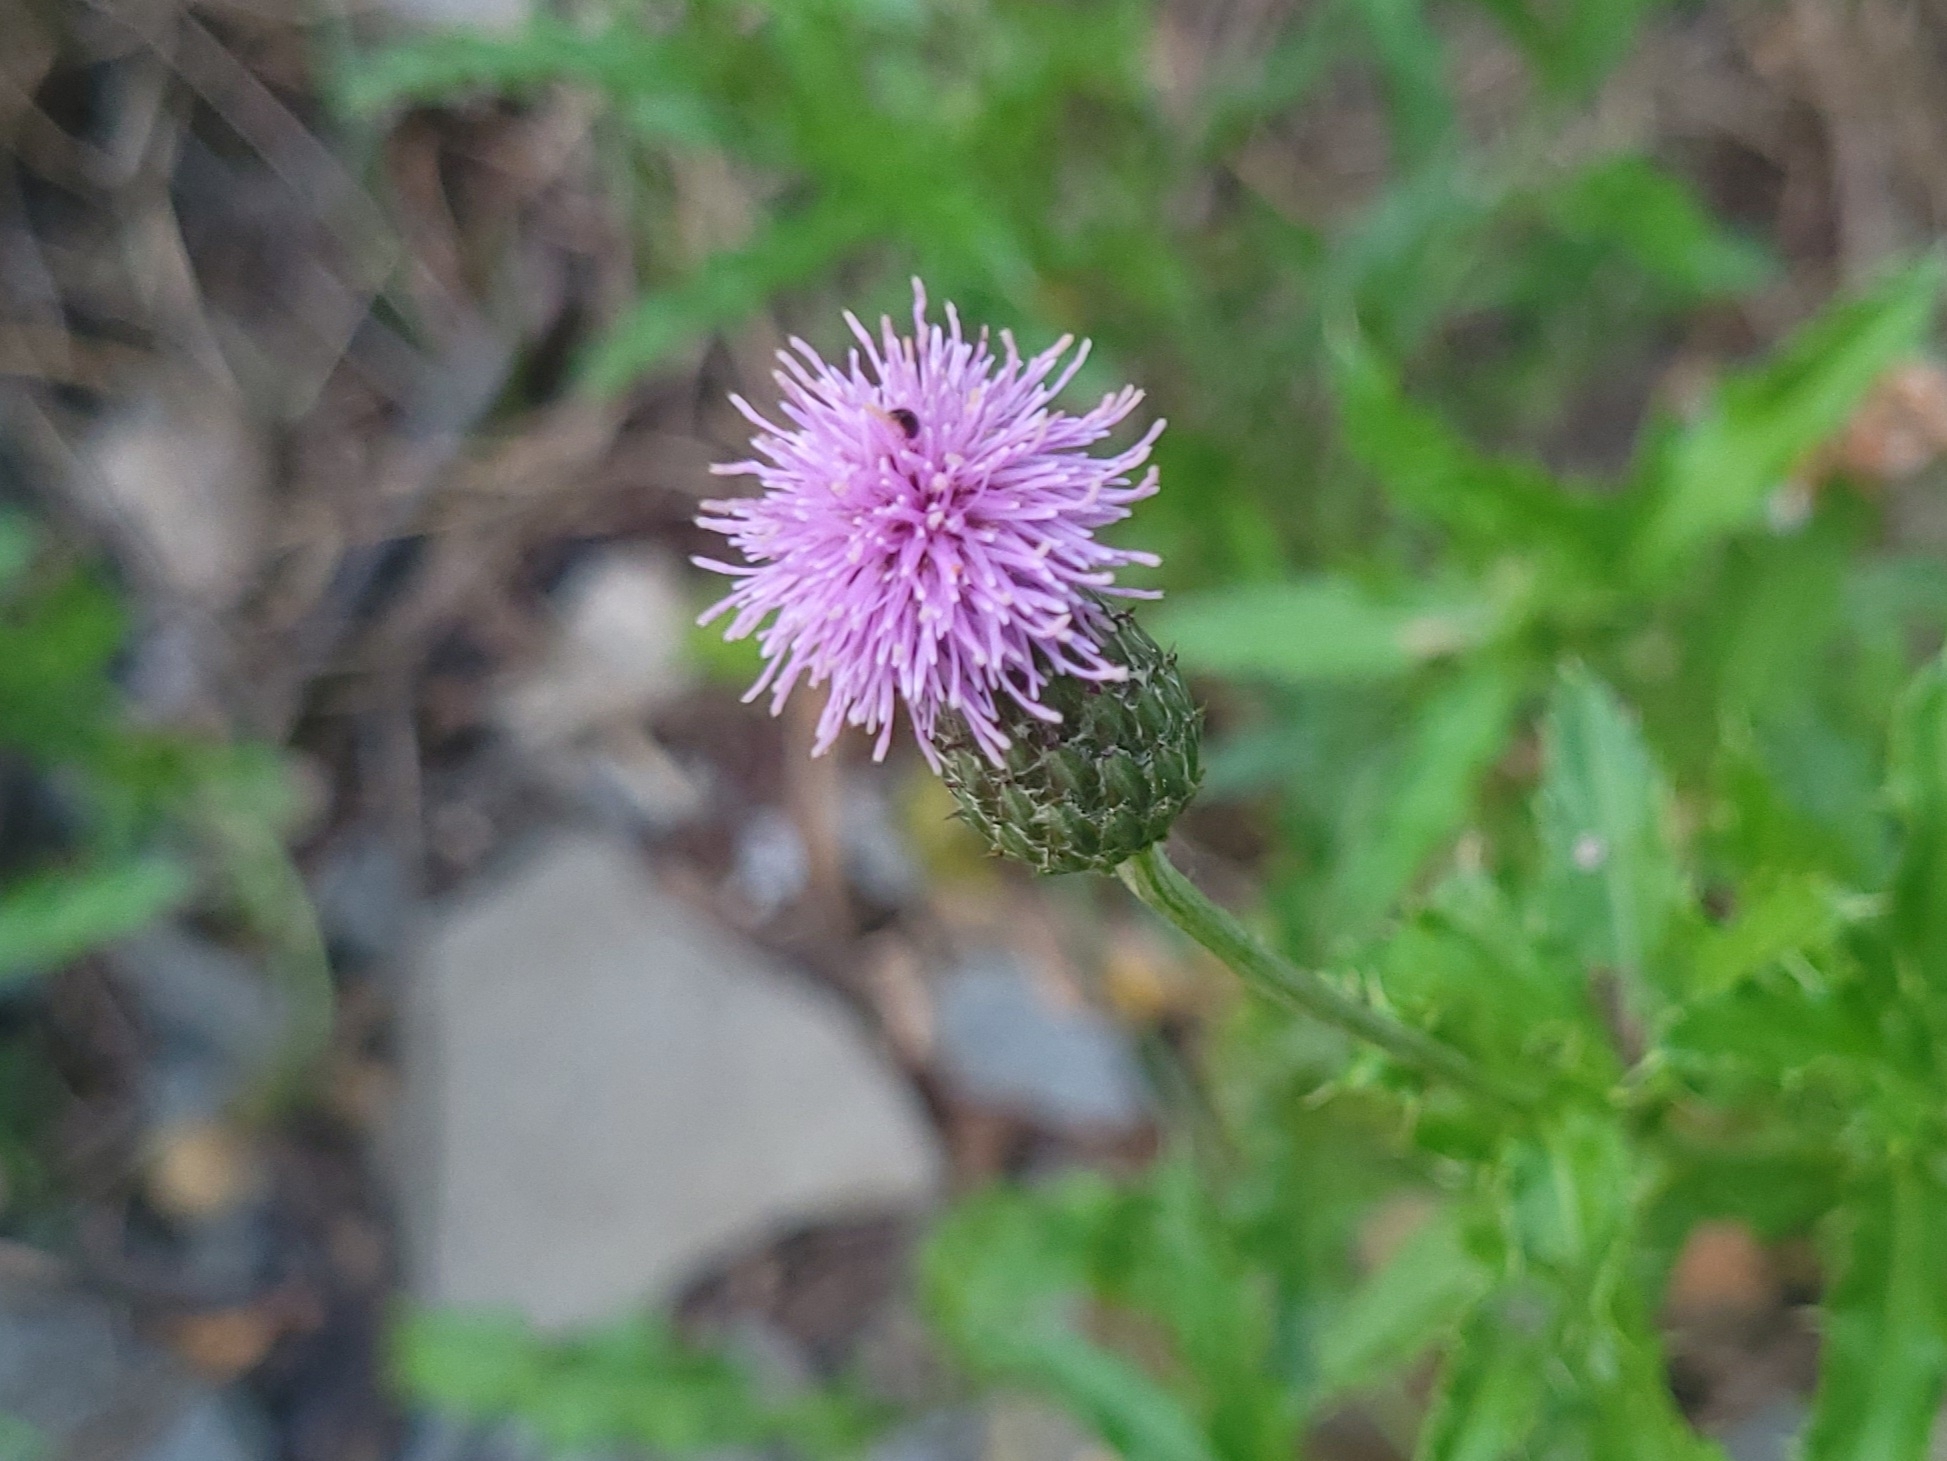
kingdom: Plantae
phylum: Tracheophyta
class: Magnoliopsida
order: Asterales
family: Asteraceae
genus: Cirsium
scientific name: Cirsium arvense
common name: Creeping thistle
